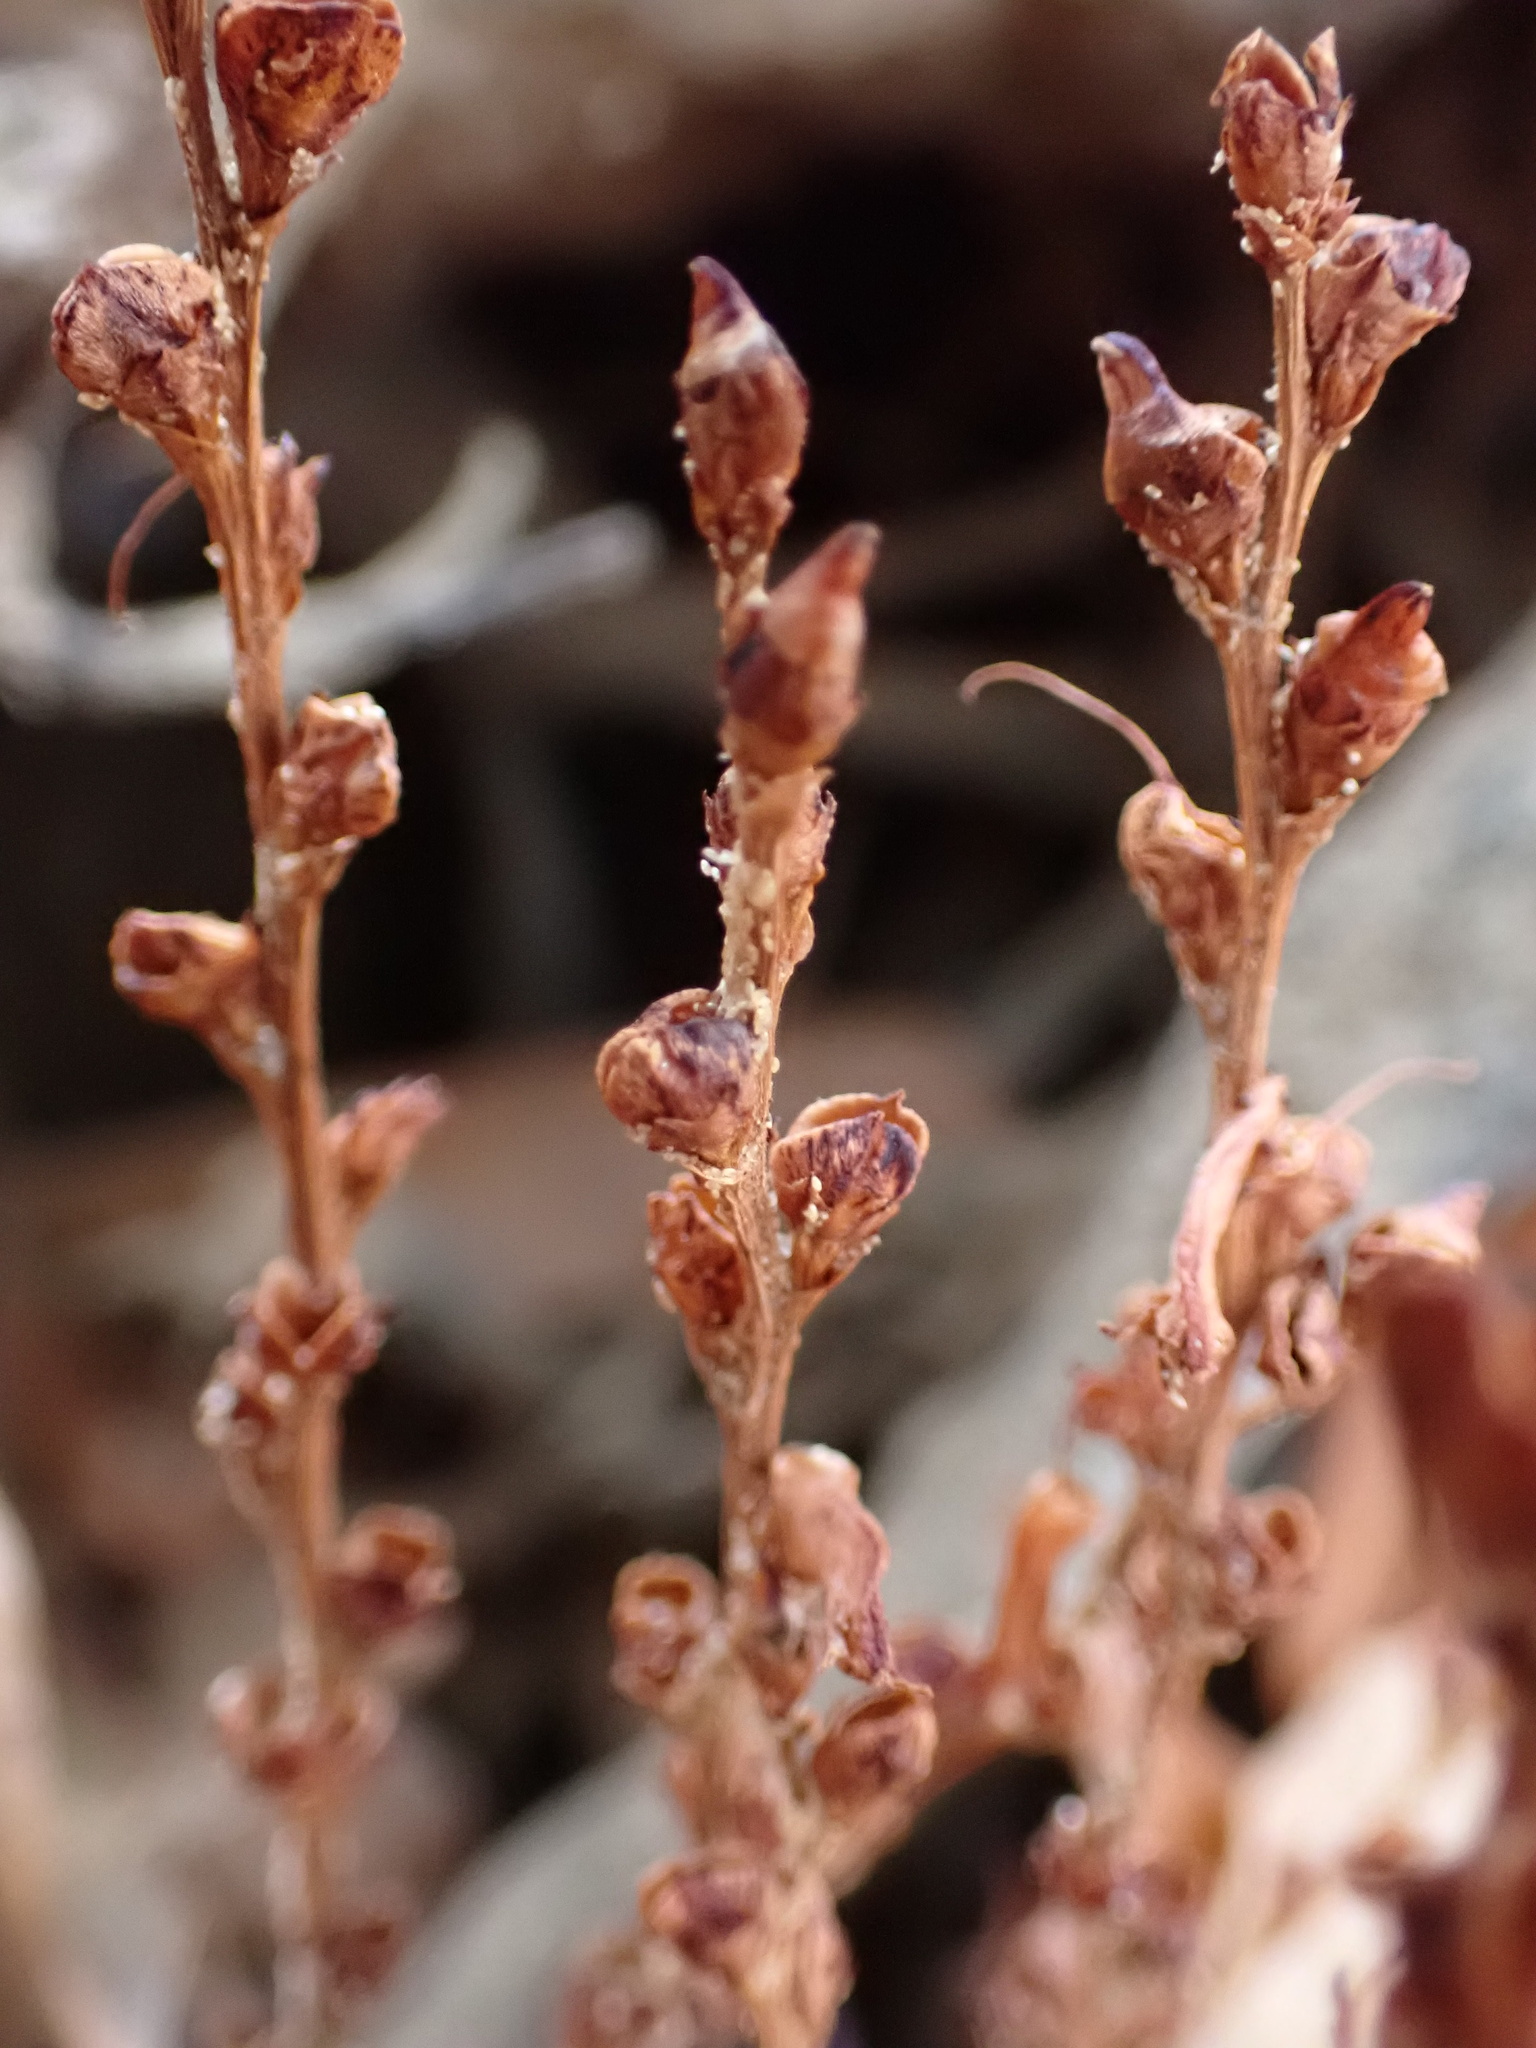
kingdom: Plantae
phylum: Tracheophyta
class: Magnoliopsida
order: Lamiales
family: Orobanchaceae
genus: Epifagus
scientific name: Epifagus virginiana
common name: Beechdrops
